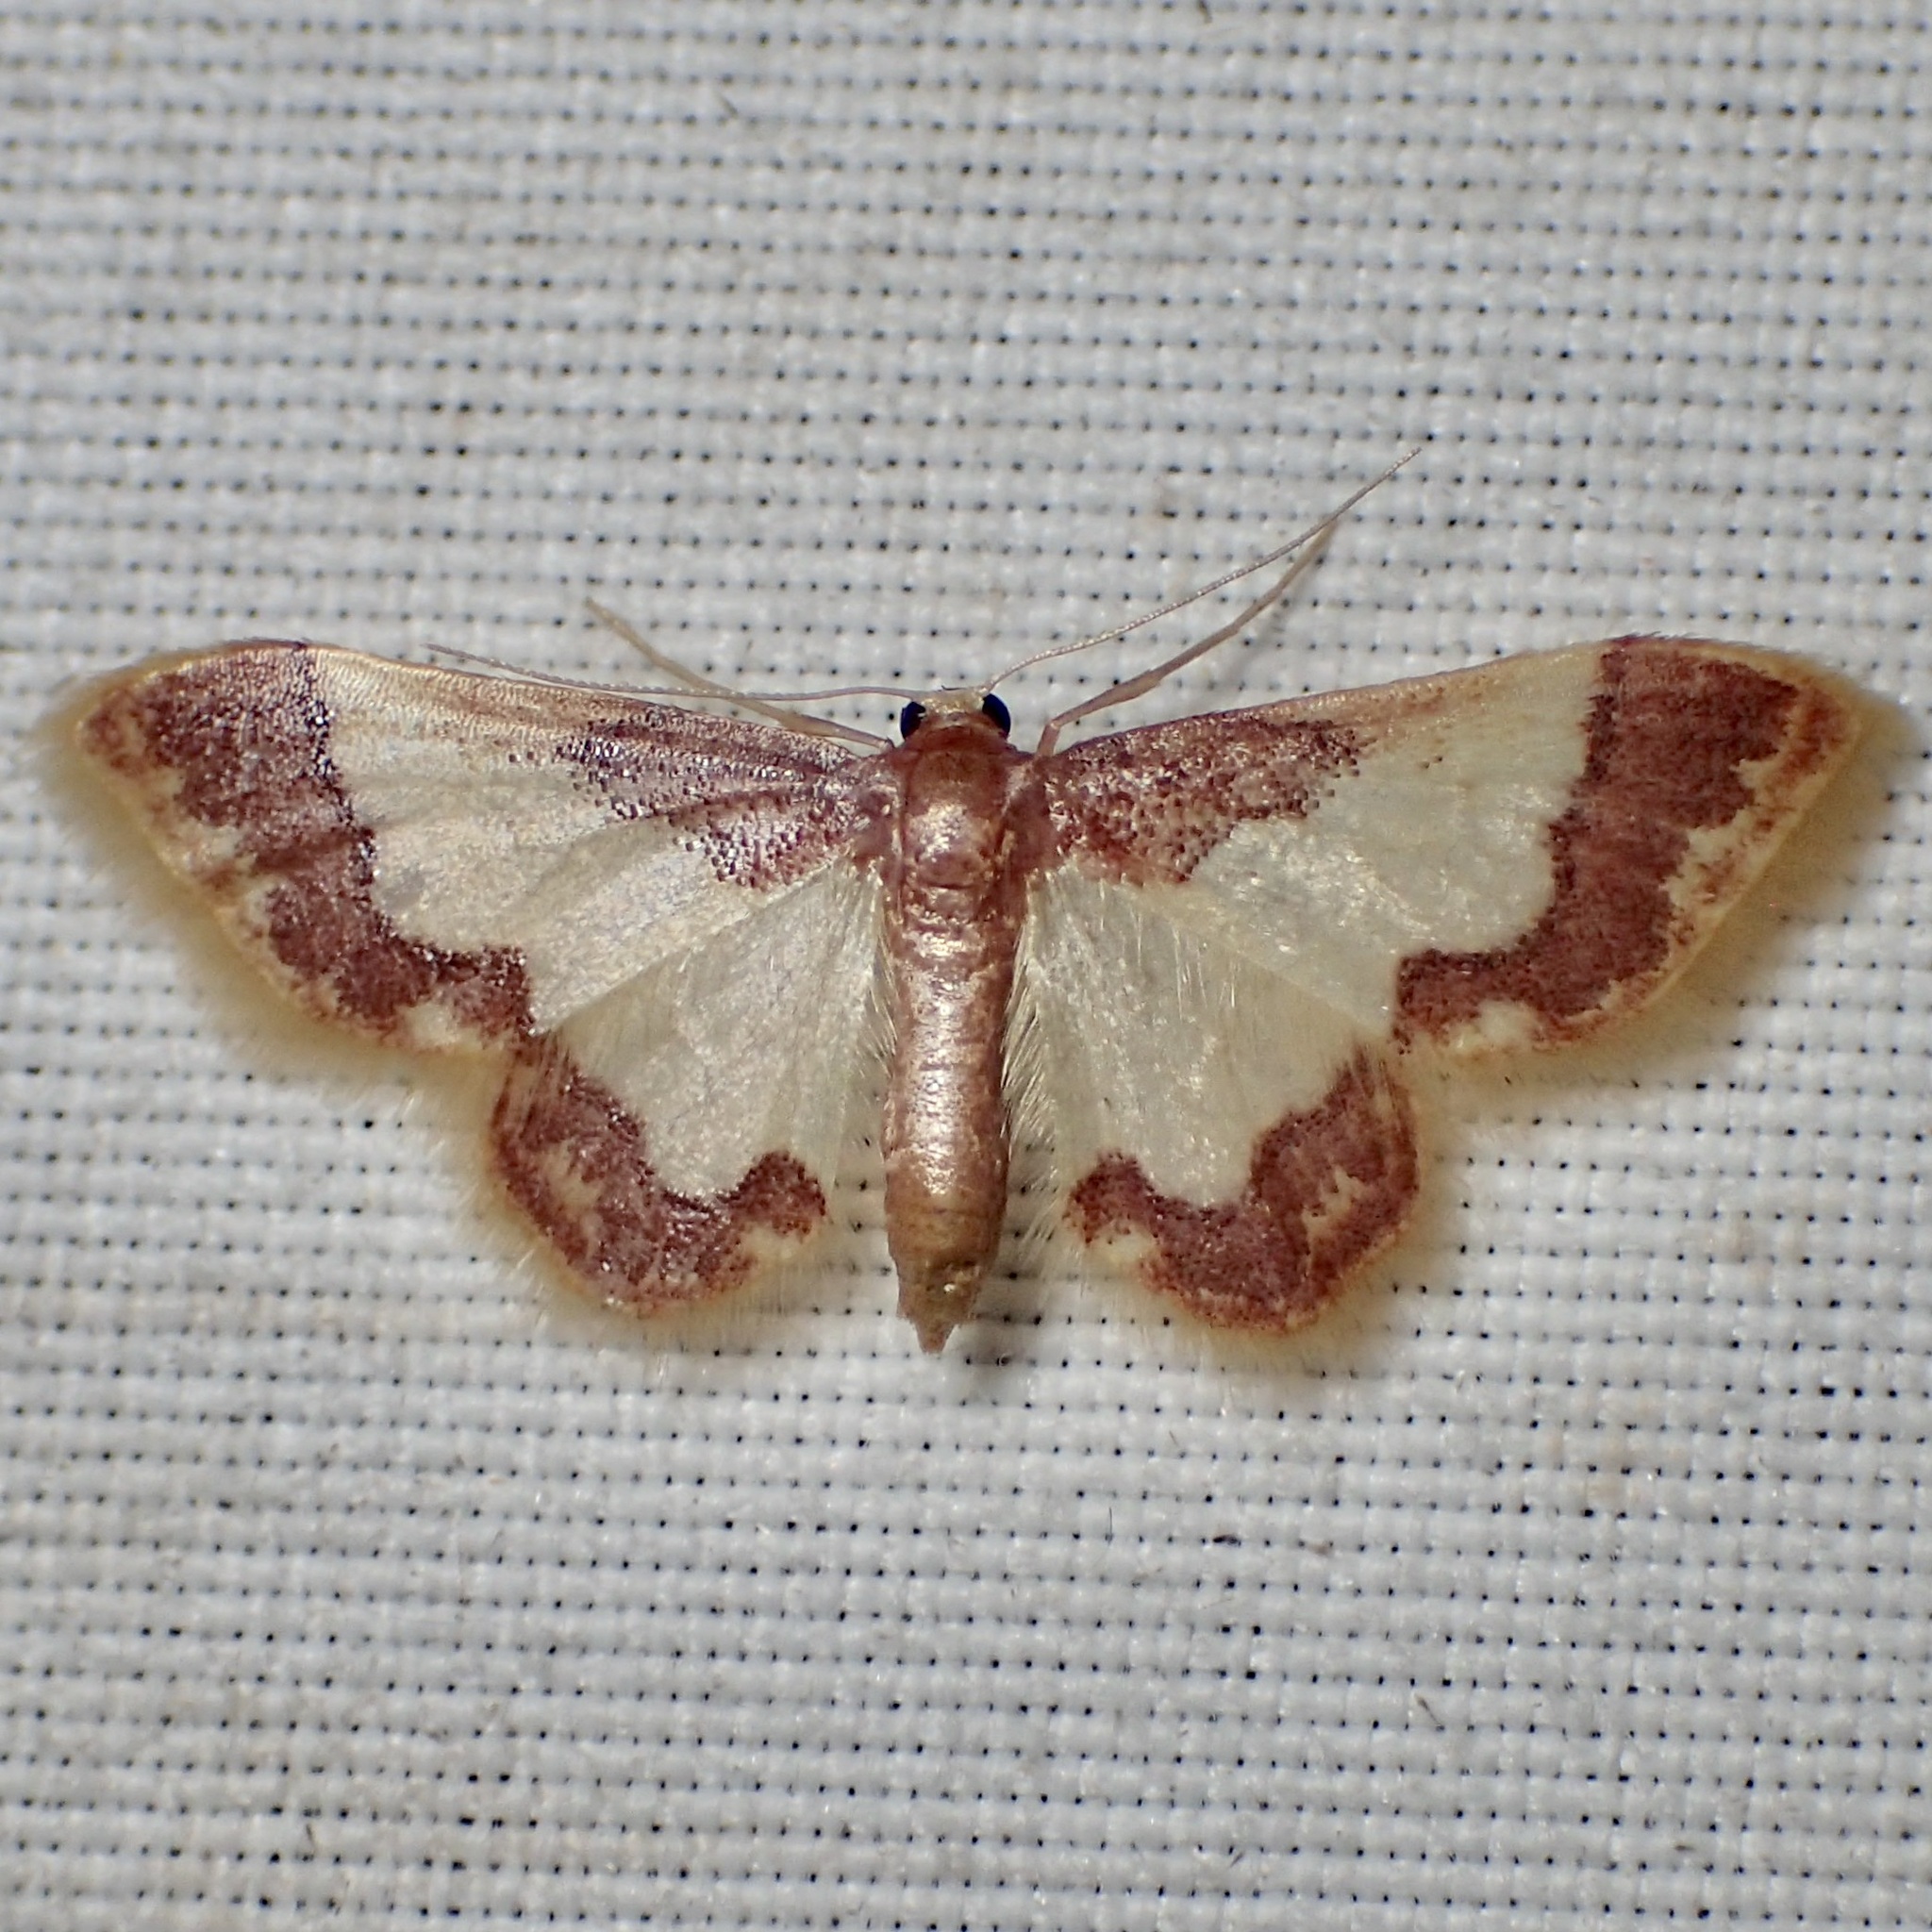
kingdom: Animalia
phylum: Arthropoda
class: Insecta
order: Lepidoptera
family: Geometridae
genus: Idaea
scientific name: Idaea basinta
